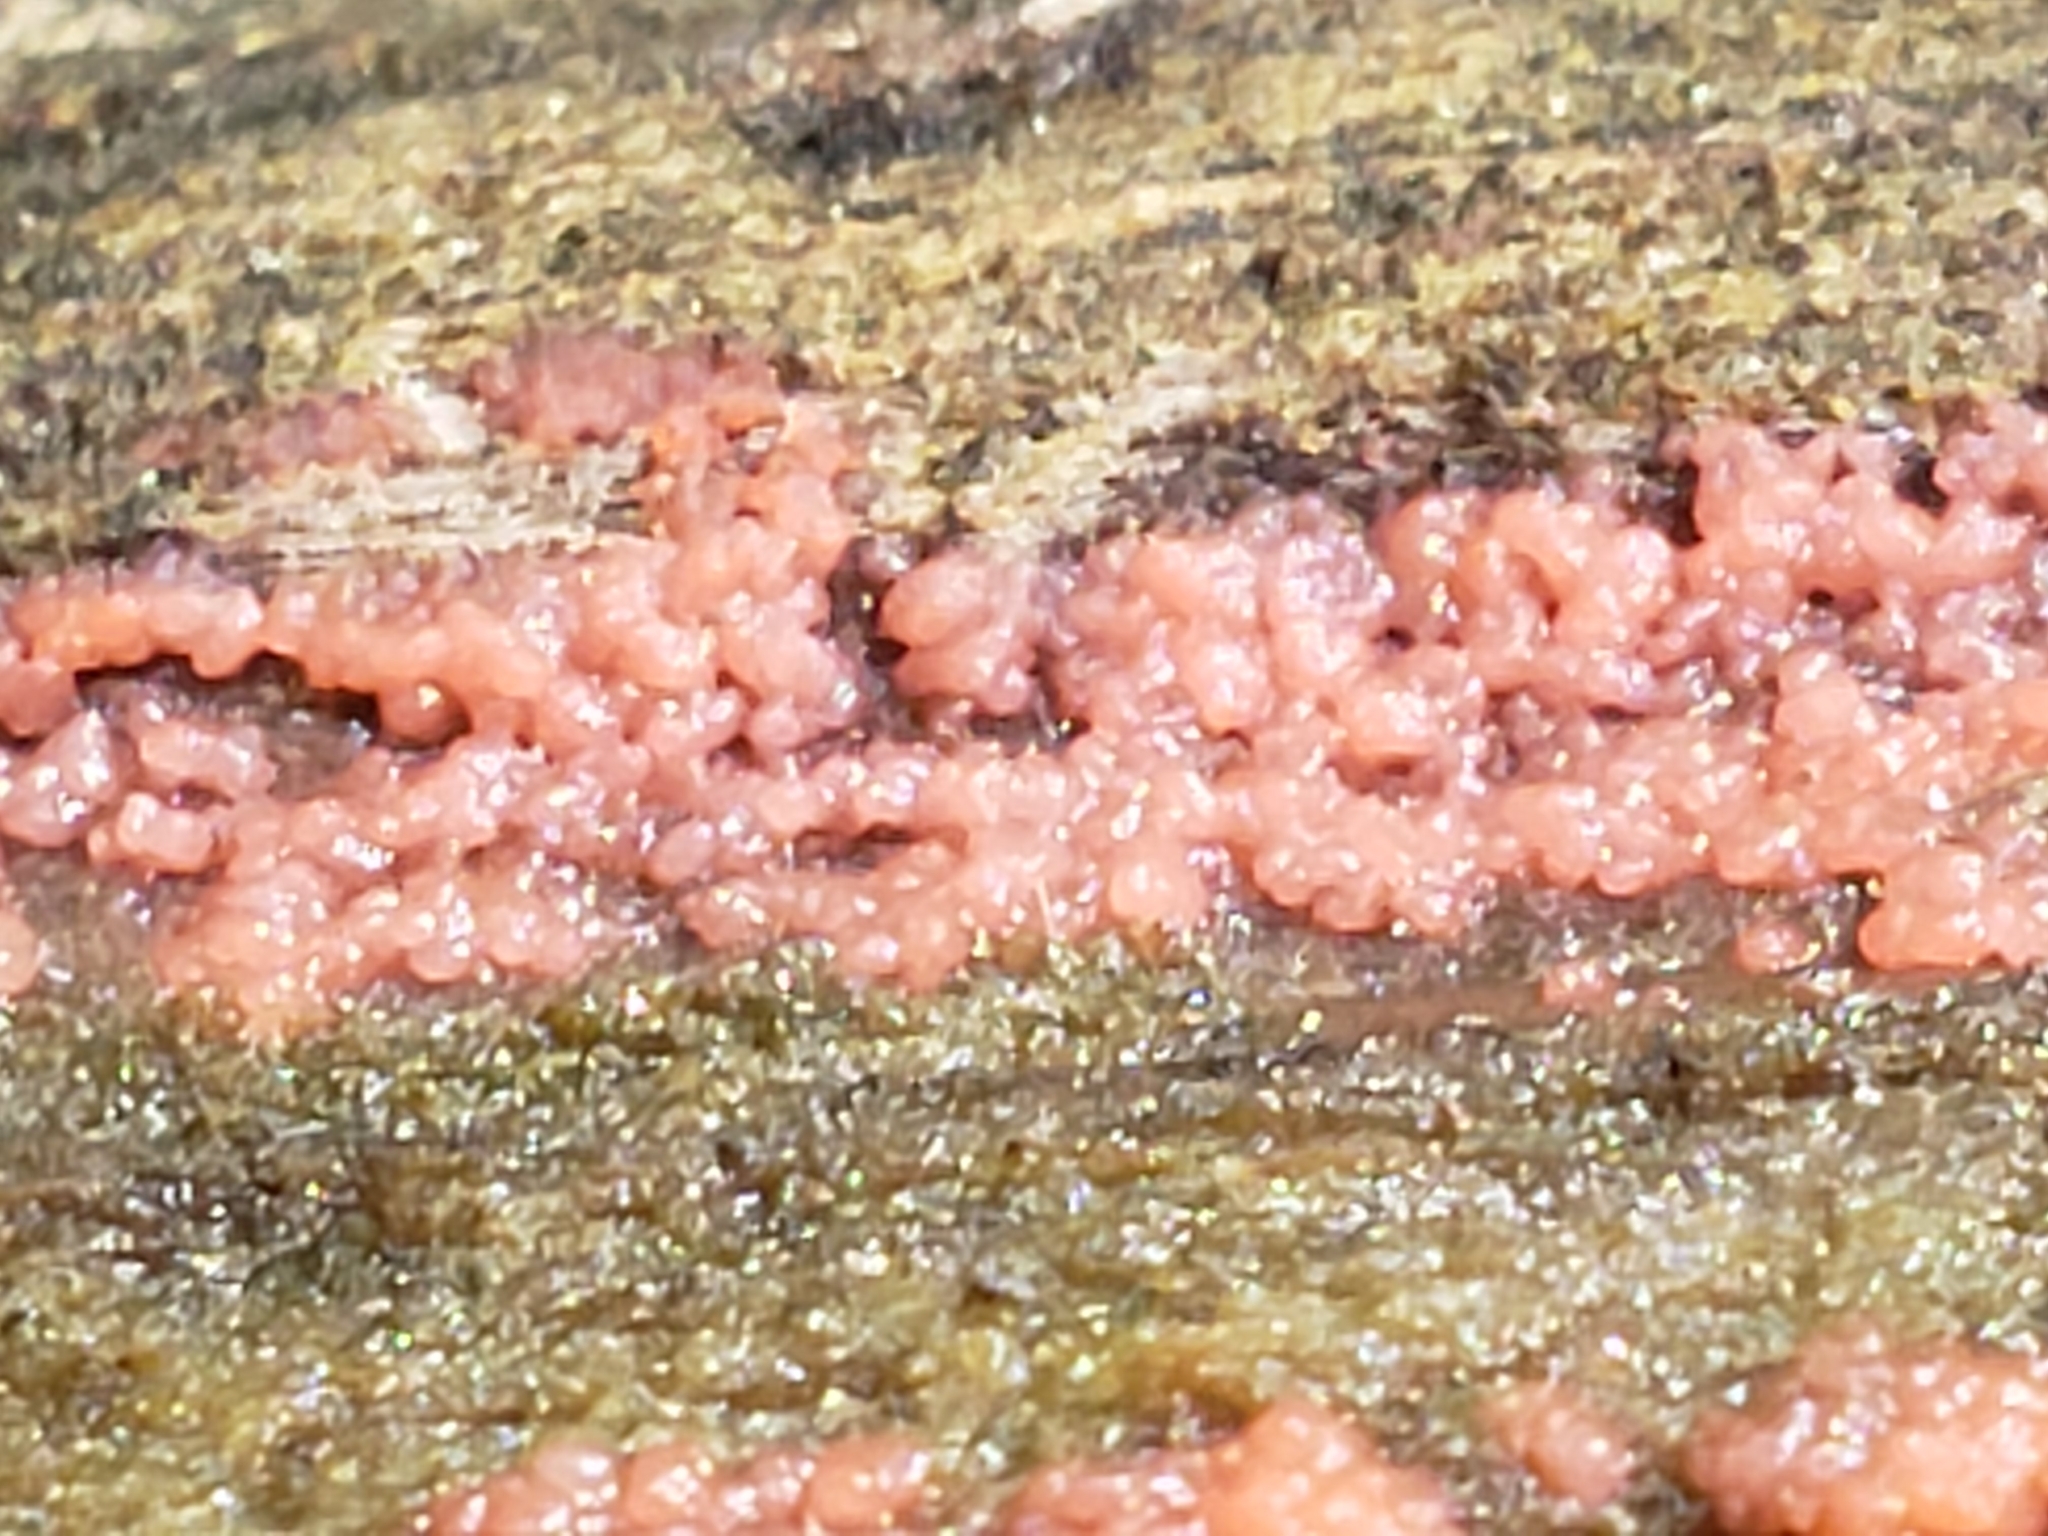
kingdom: Fungi
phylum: Basidiomycota
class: Agaricomycetes
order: Cantharellales
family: Tulasnellaceae
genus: Tulasnella
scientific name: Tulasnella aurantiaca
